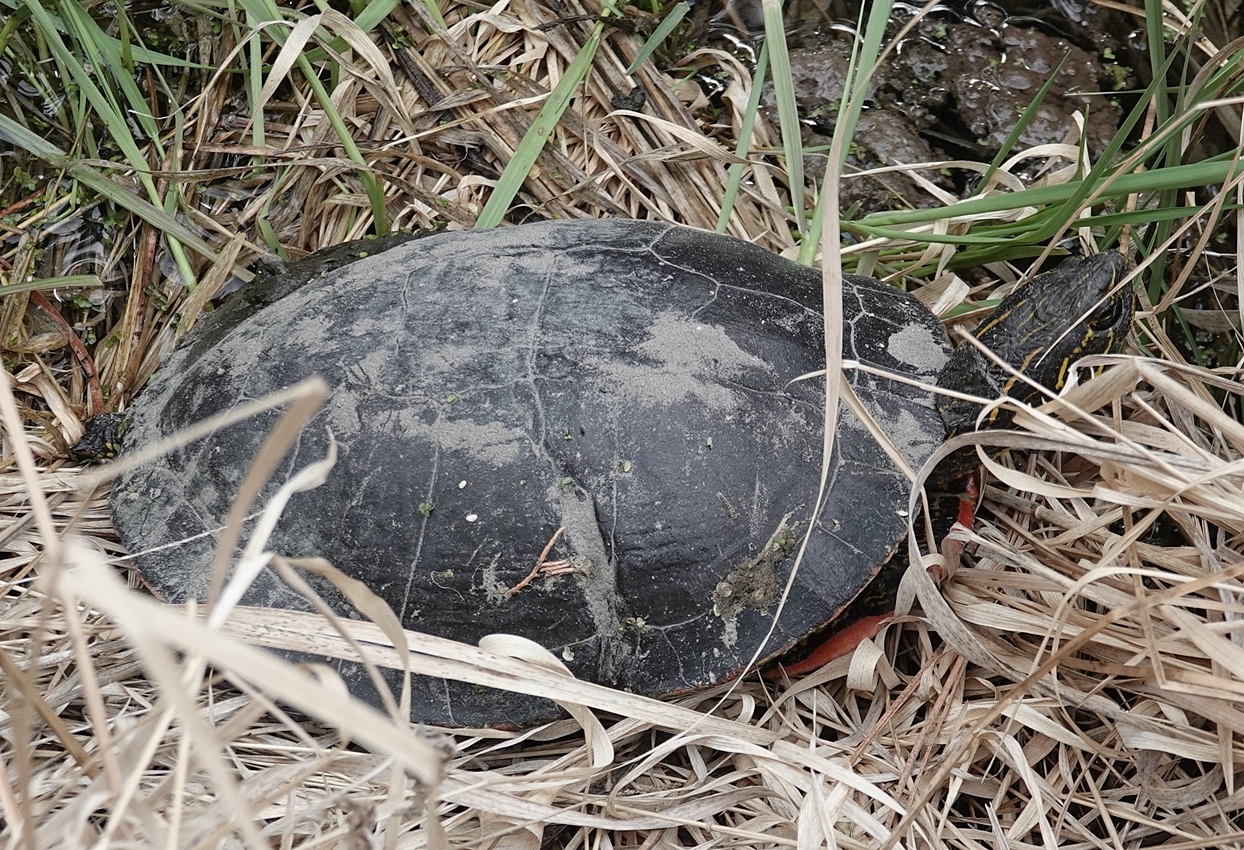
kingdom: Animalia
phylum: Chordata
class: Testudines
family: Emydidae
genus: Chrysemys
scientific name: Chrysemys picta
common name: Painted turtle
